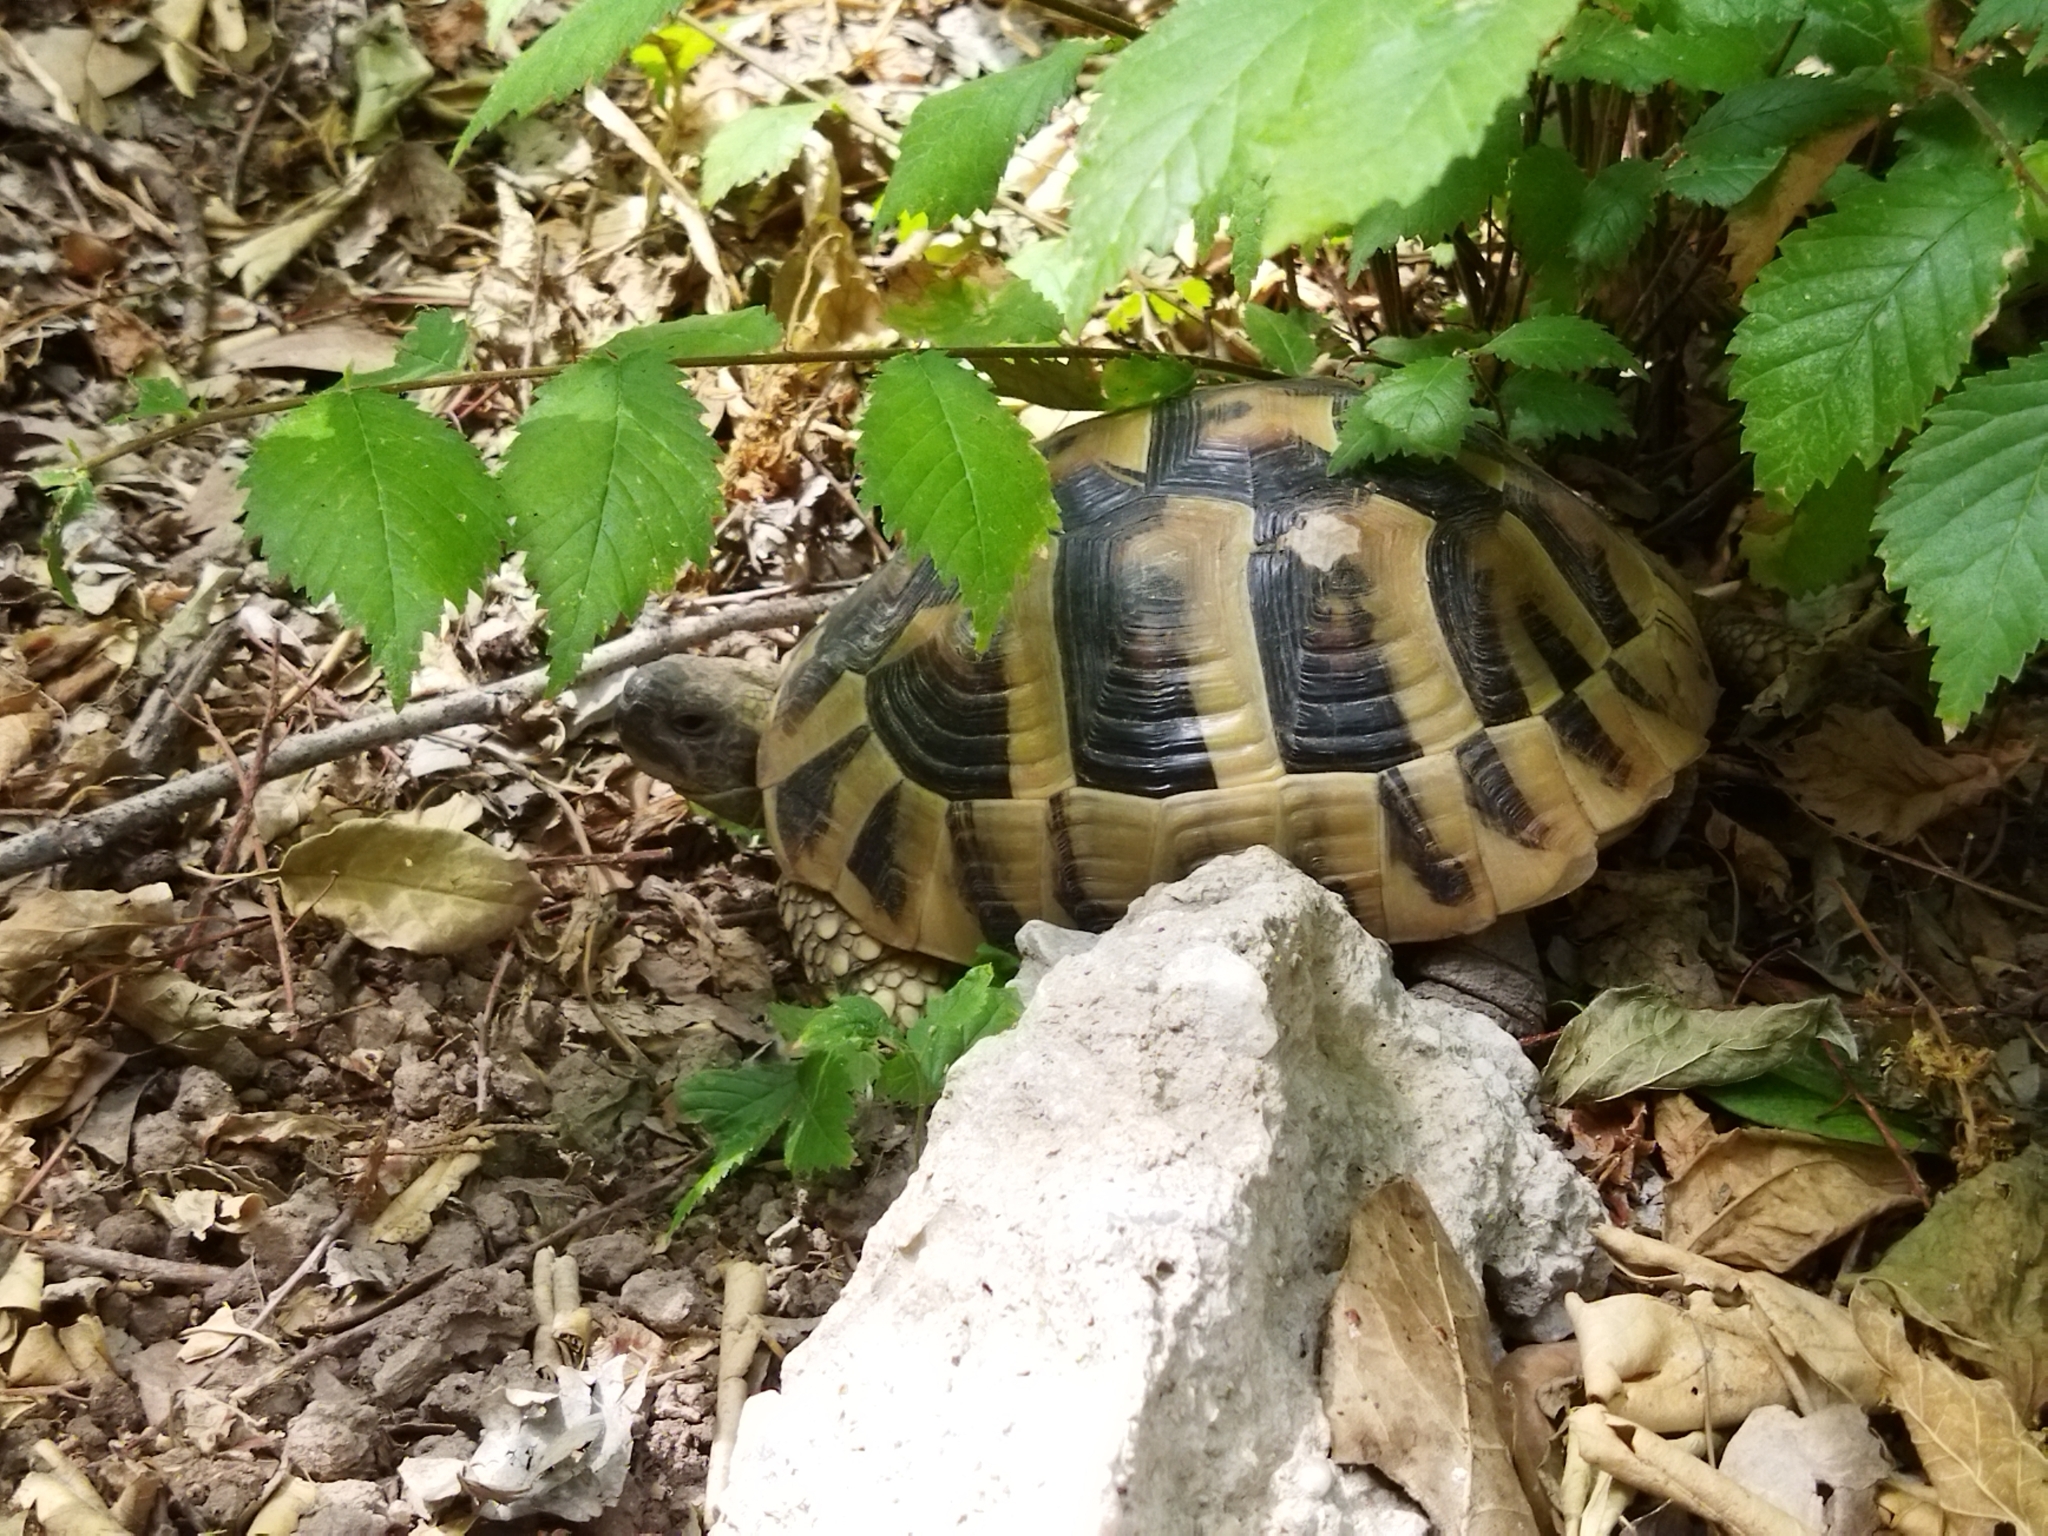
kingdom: Animalia
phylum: Chordata
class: Testudines
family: Testudinidae
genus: Testudo
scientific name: Testudo hermanni
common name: Hermann's tortoise
